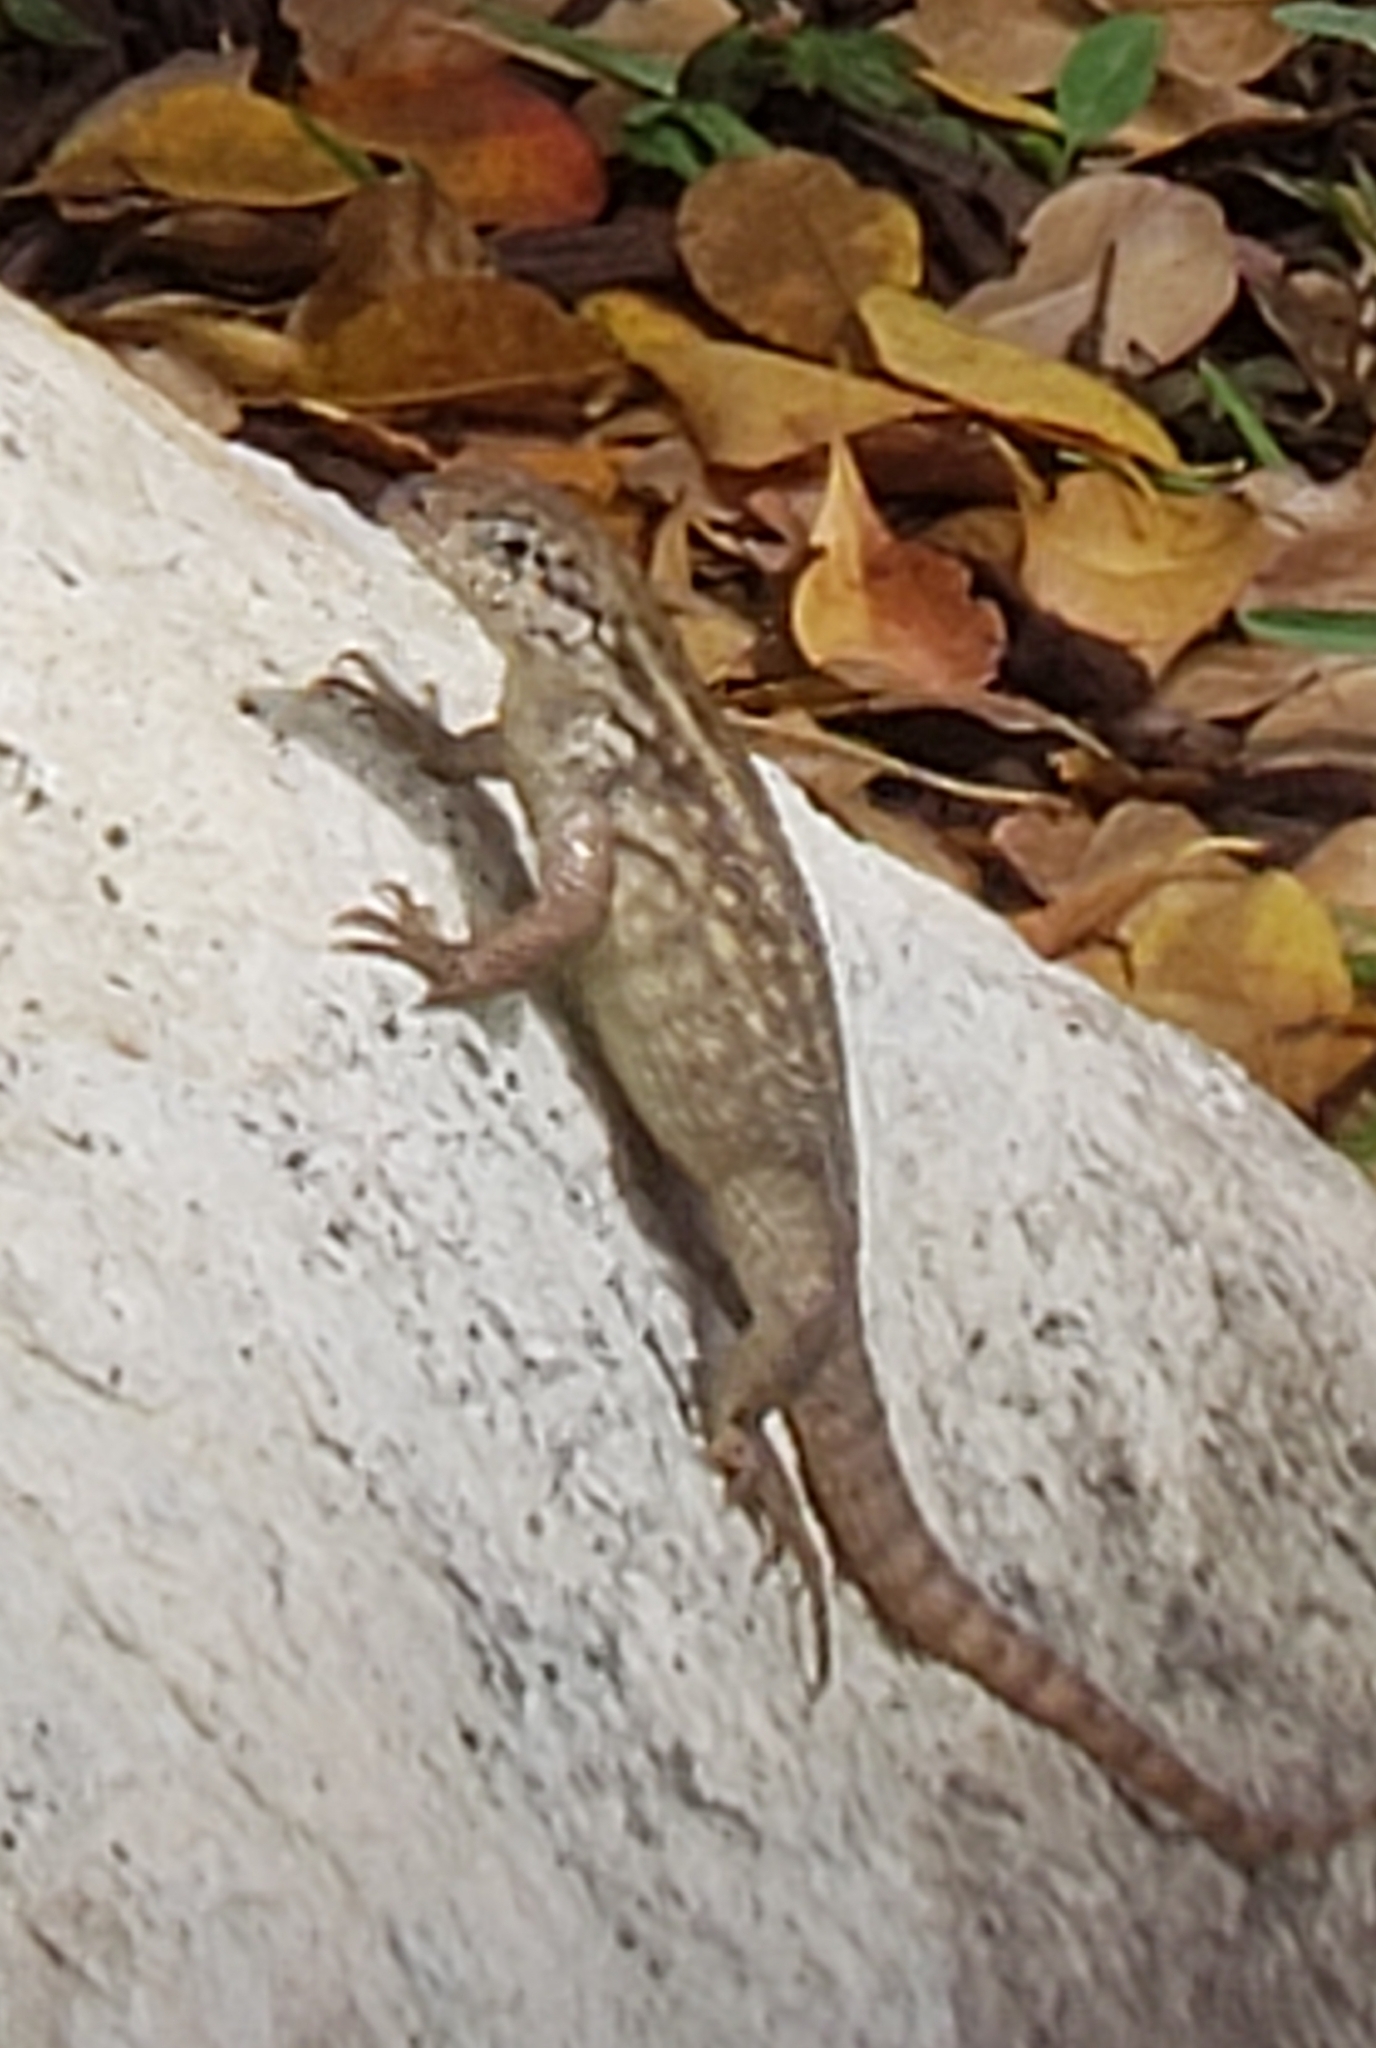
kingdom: Animalia
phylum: Chordata
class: Squamata
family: Leiocephalidae
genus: Leiocephalus
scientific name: Leiocephalus carinatus
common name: Northern curly-tailed lizard
